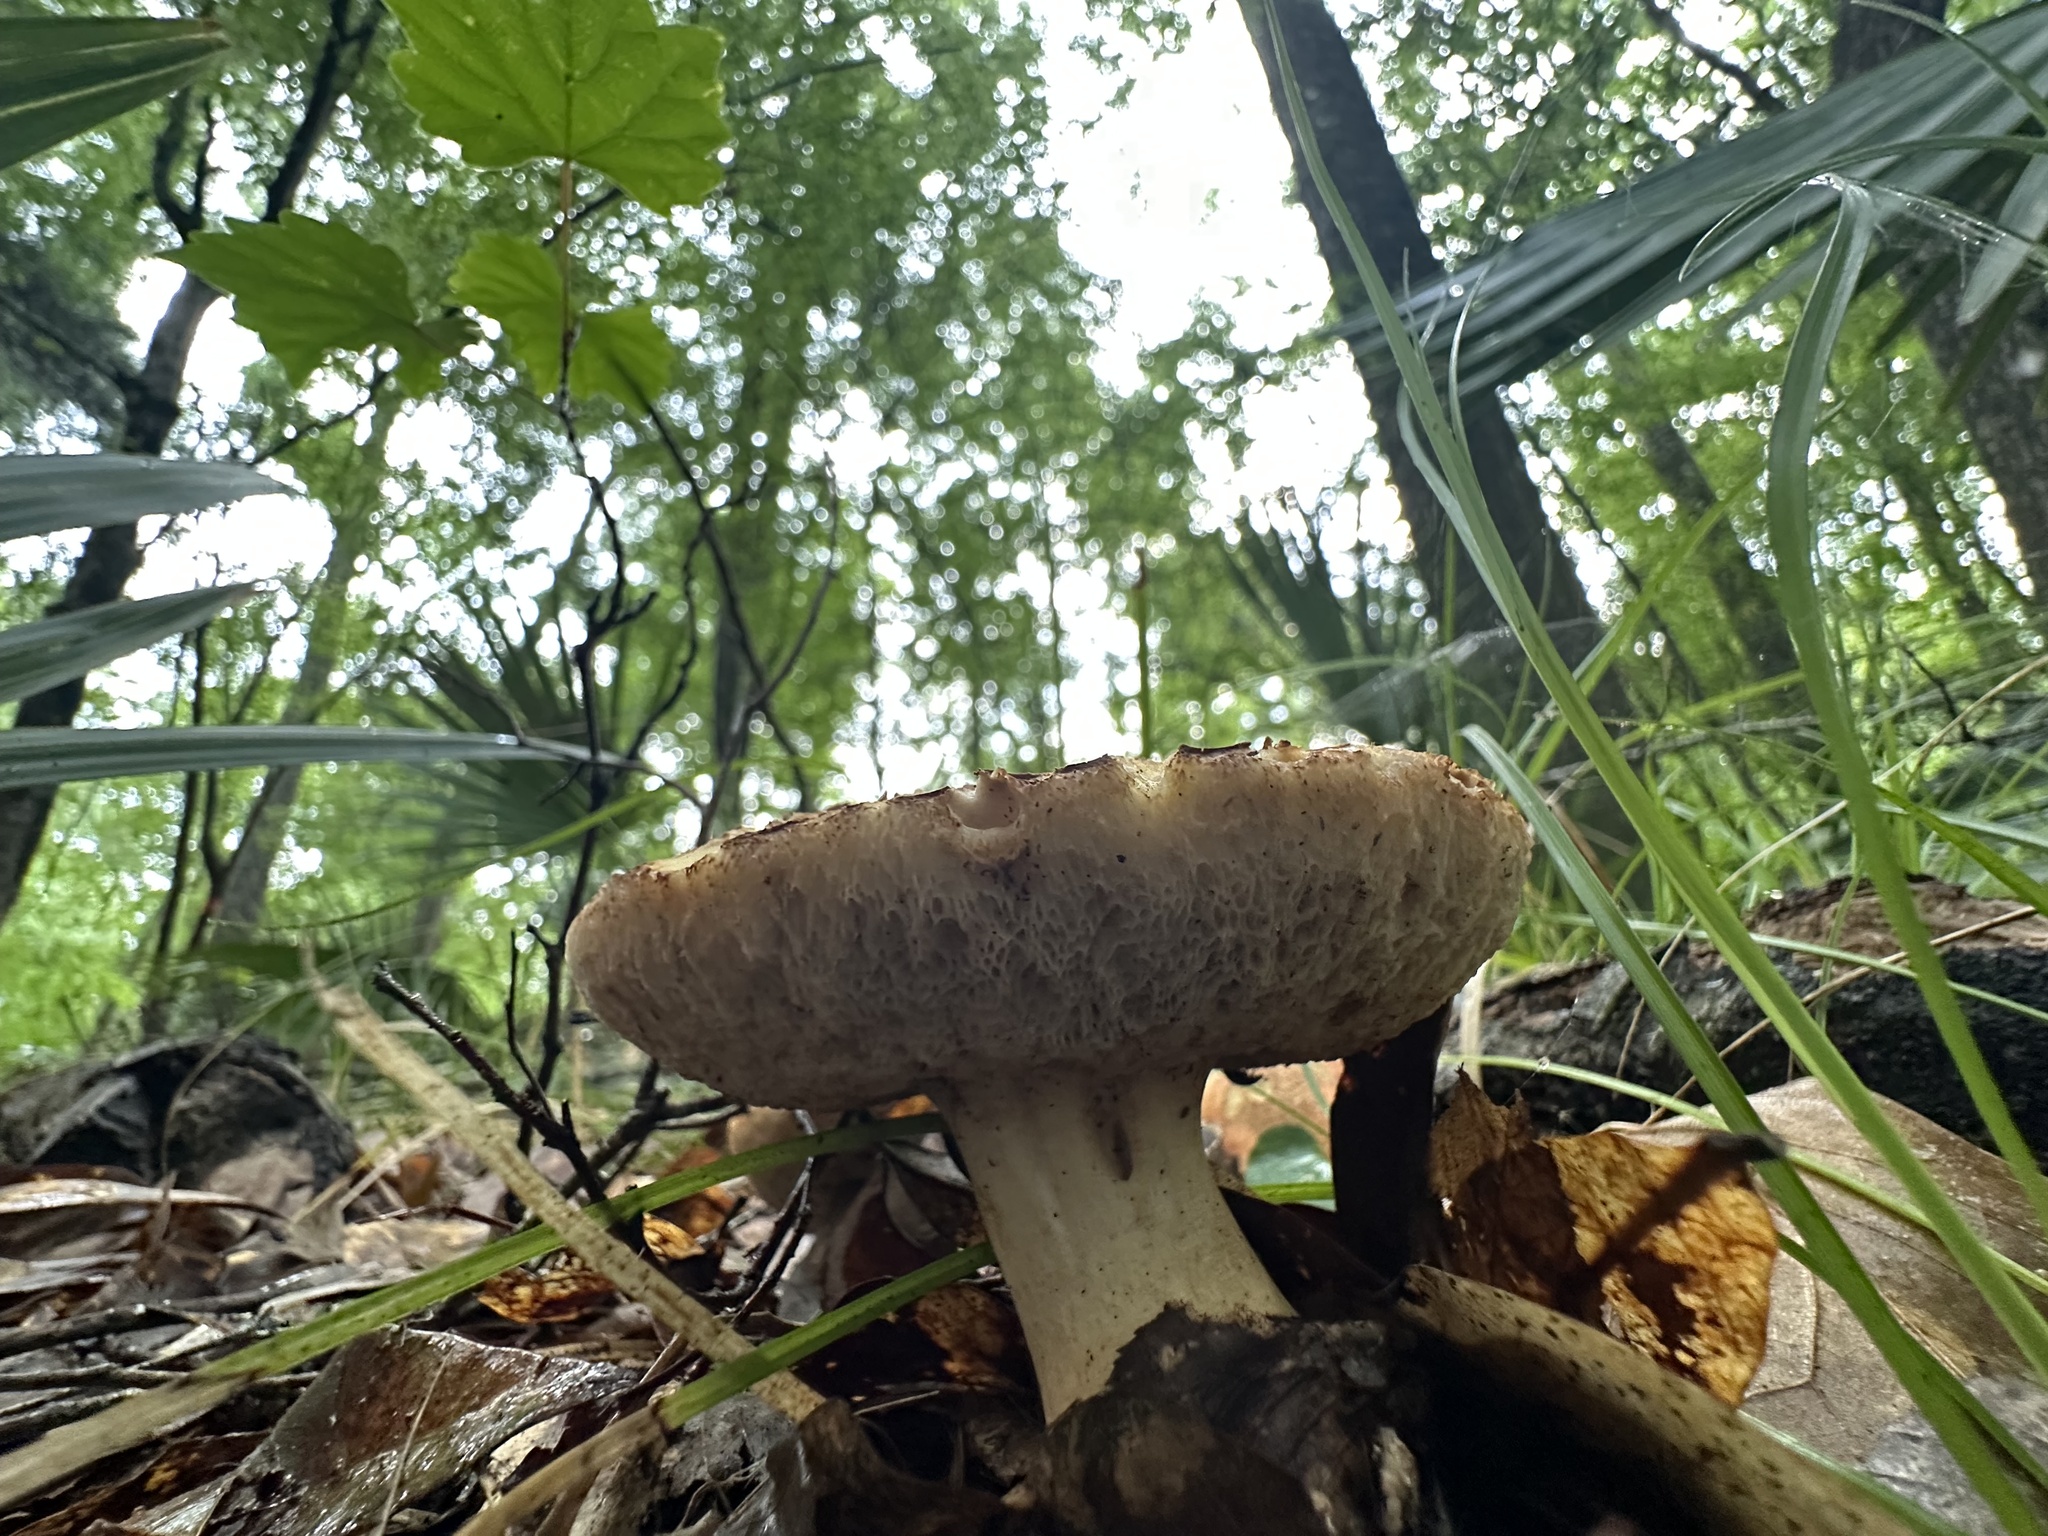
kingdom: Fungi
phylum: Basidiomycota
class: Agaricomycetes
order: Boletales
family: Boletaceae
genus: Tylopilus
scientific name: Tylopilus balloui
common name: Burnt-orange bolete
